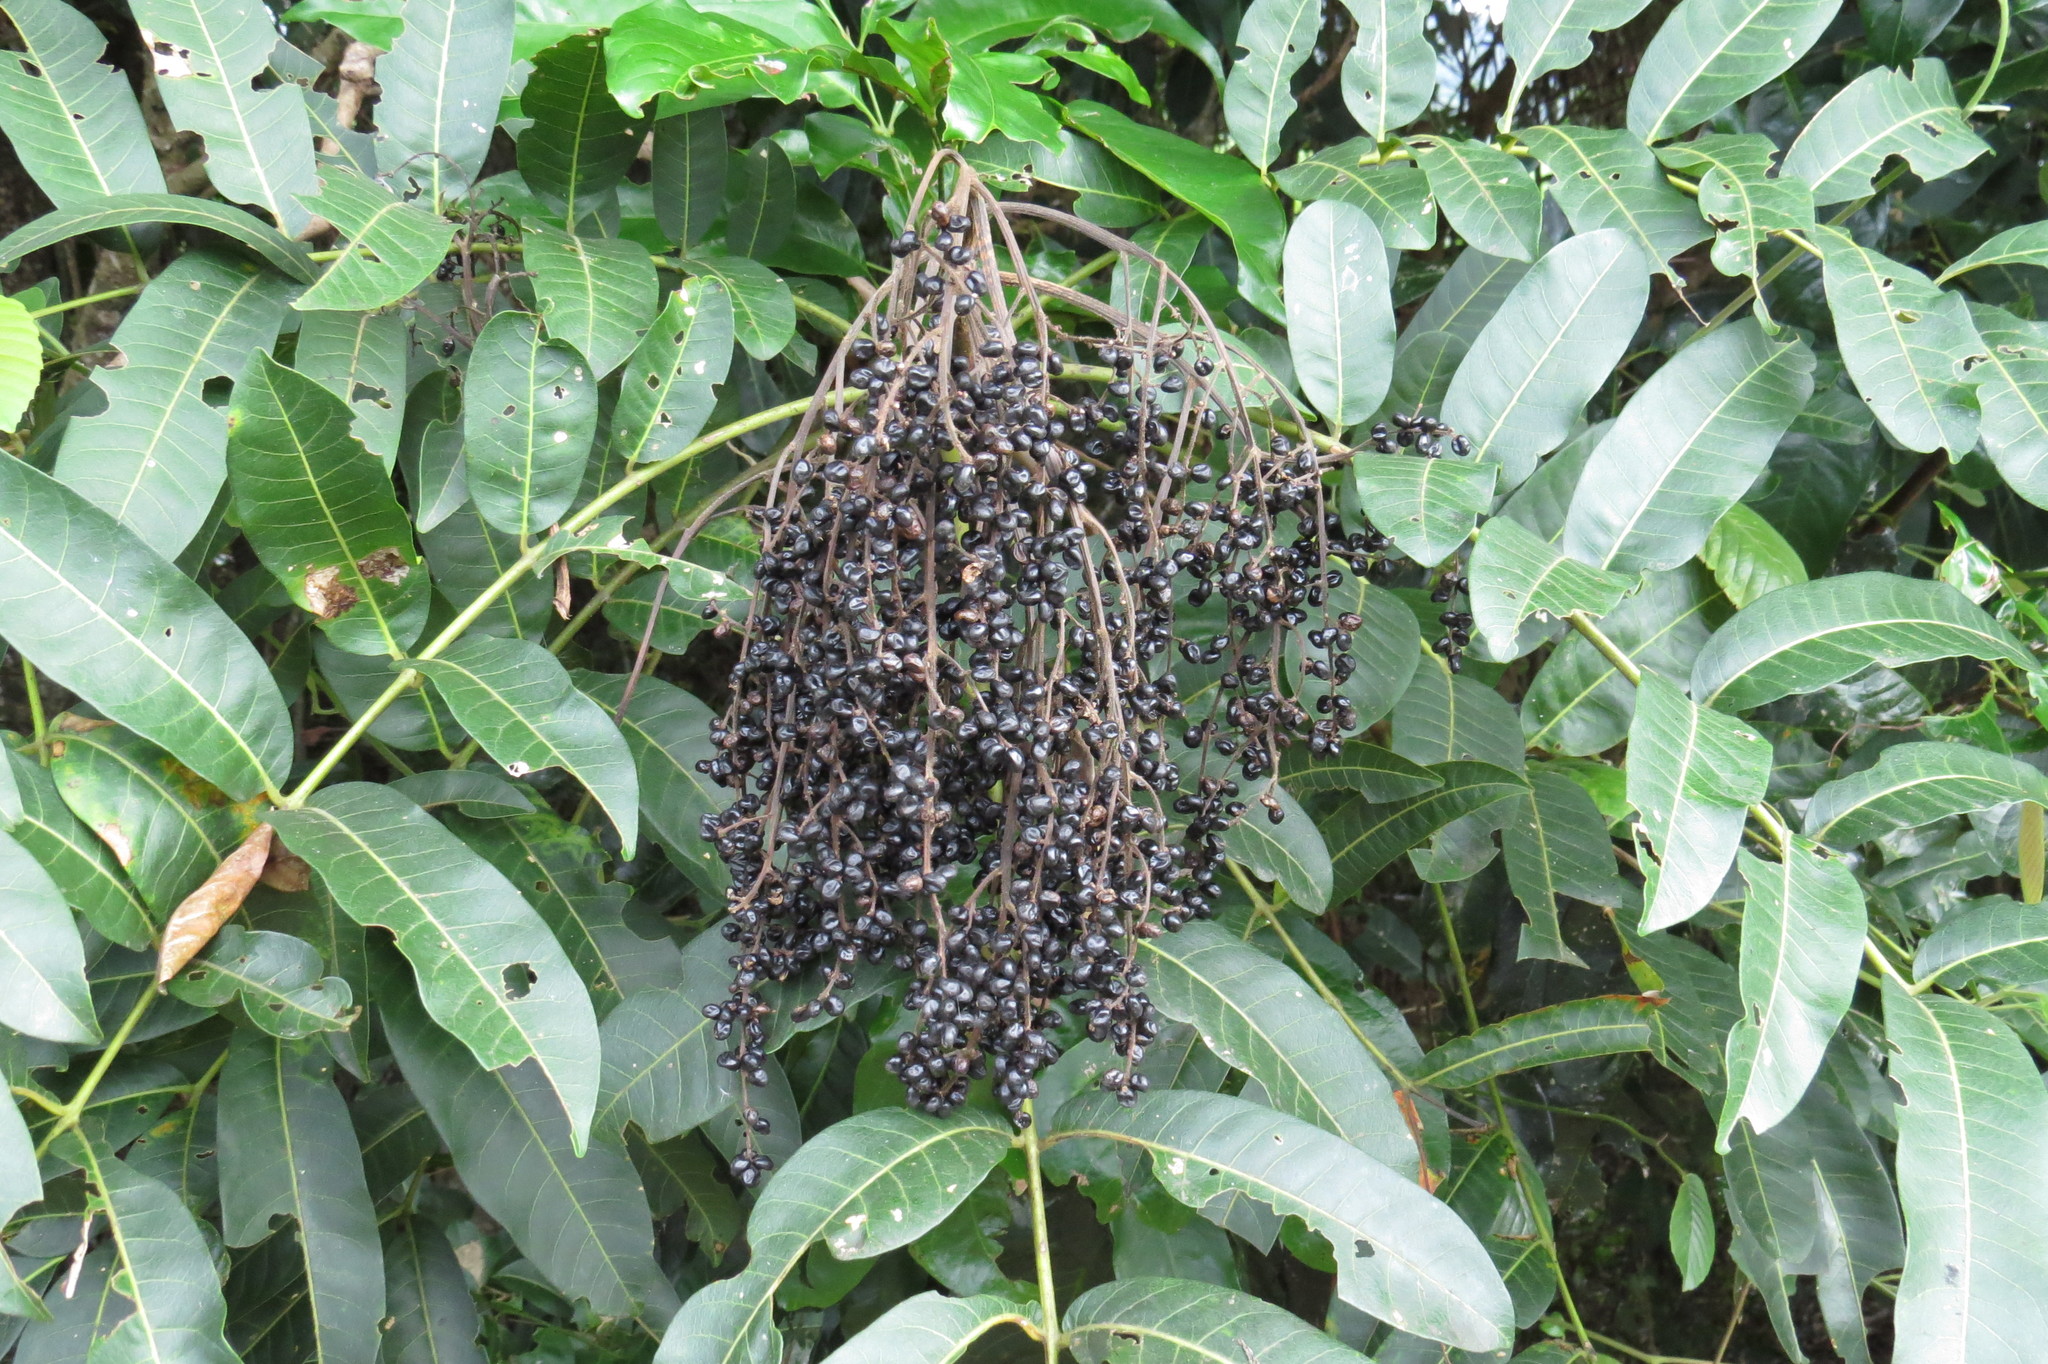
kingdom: Plantae
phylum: Tracheophyta
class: Magnoliopsida
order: Sapindales
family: Anacardiaceae
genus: Melanococca
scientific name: Melanococca tomentosa
